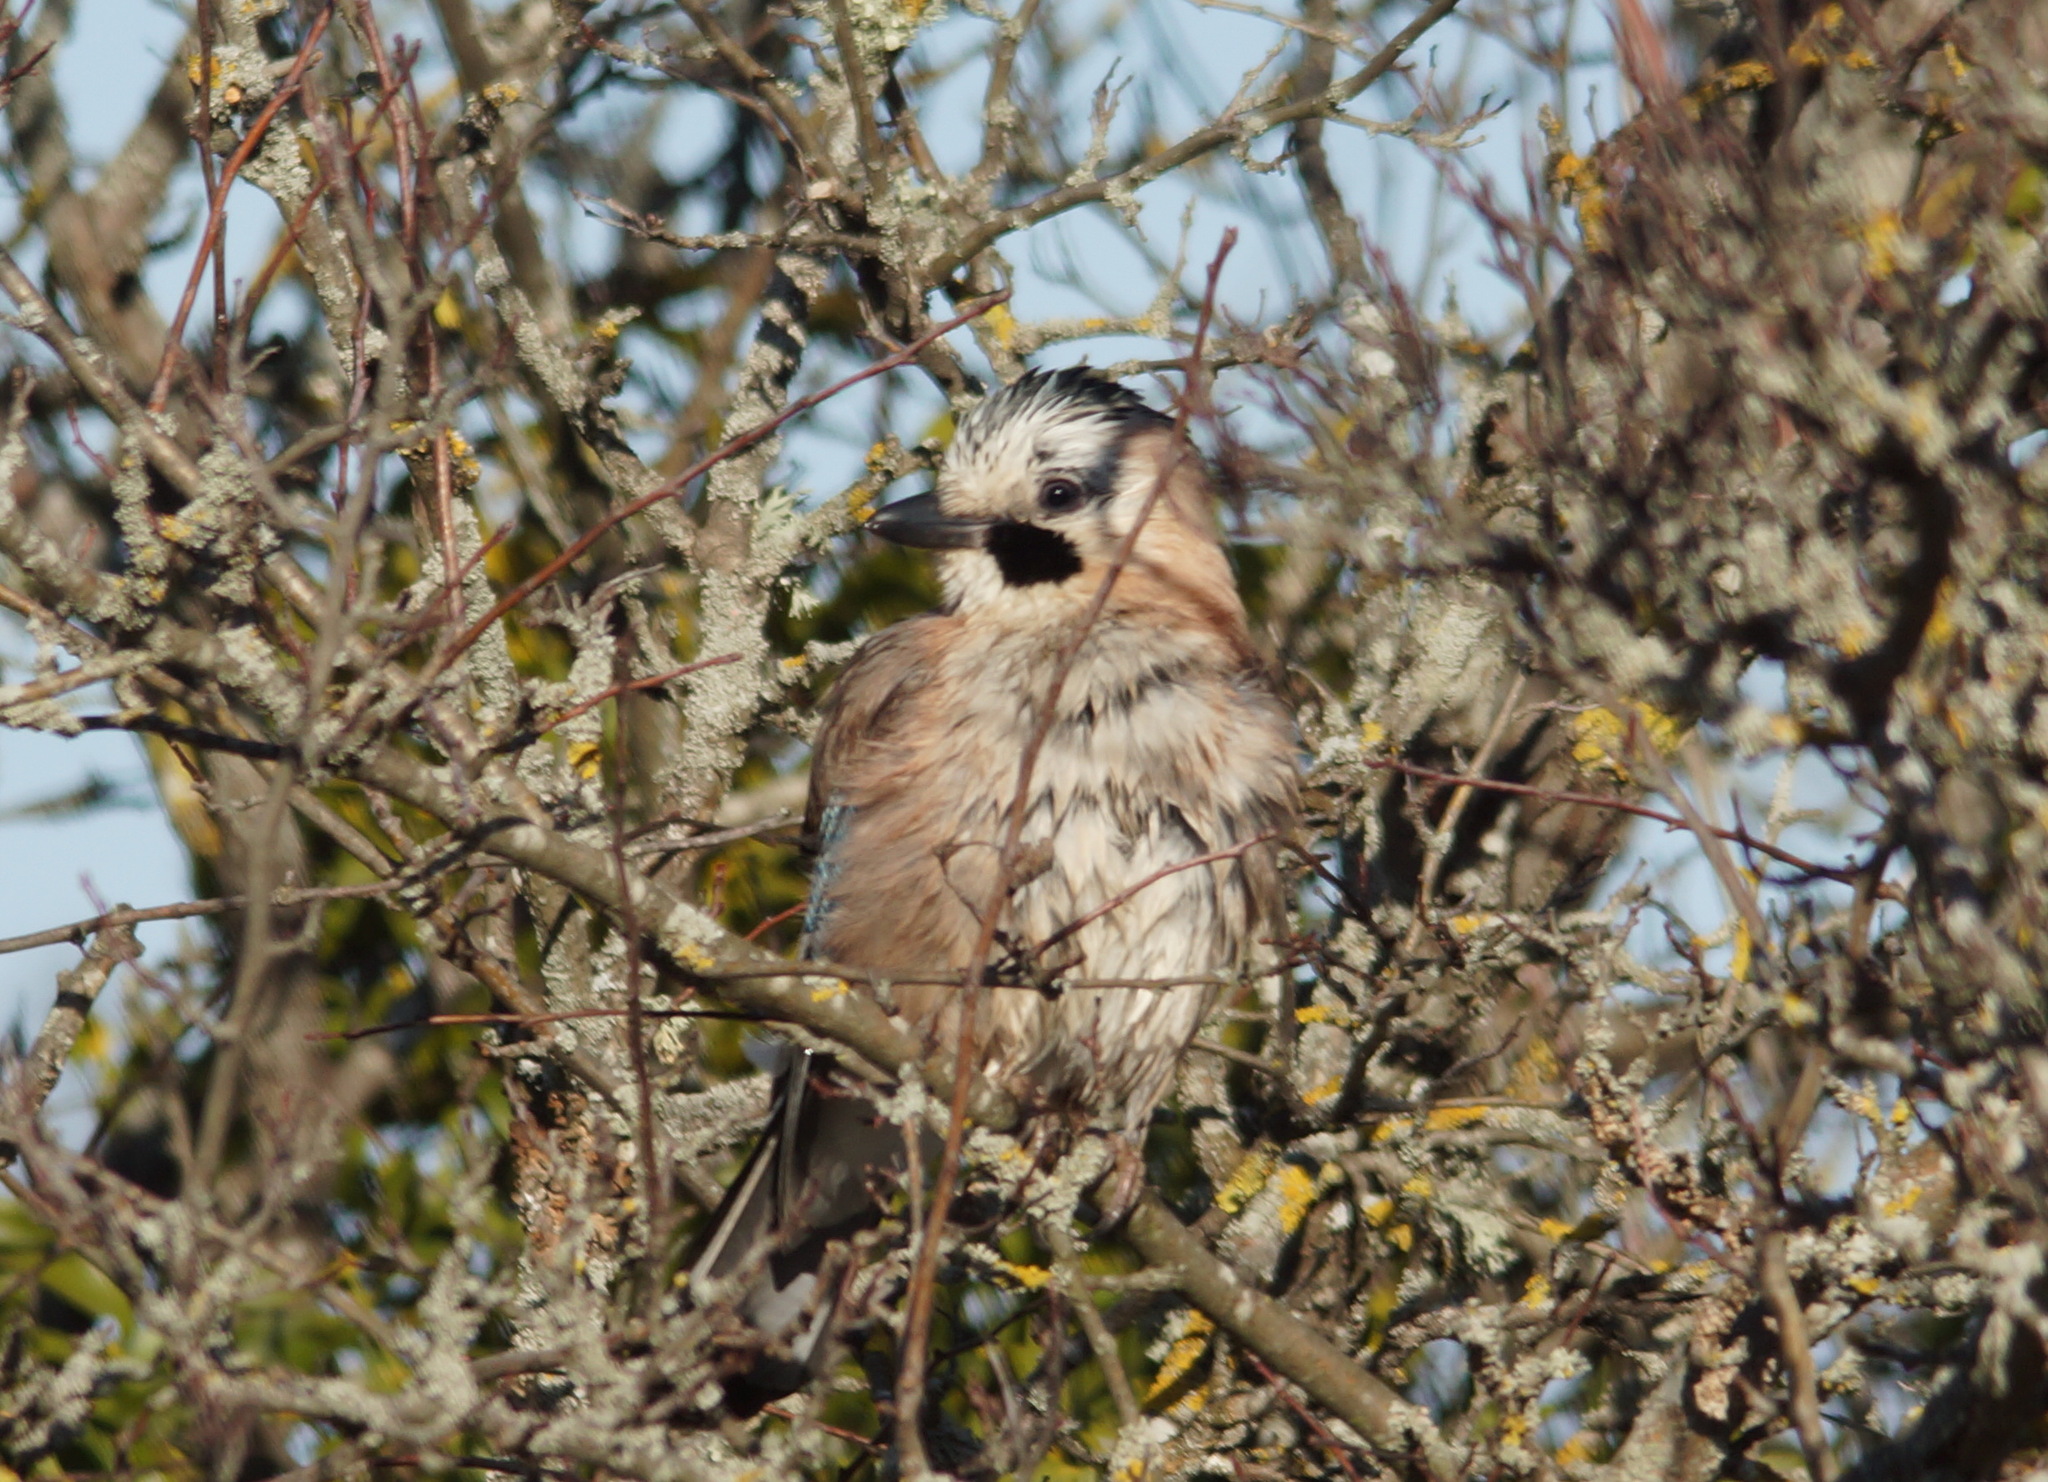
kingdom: Animalia
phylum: Chordata
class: Aves
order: Passeriformes
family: Corvidae
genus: Garrulus
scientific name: Garrulus glandarius
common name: Eurasian jay
